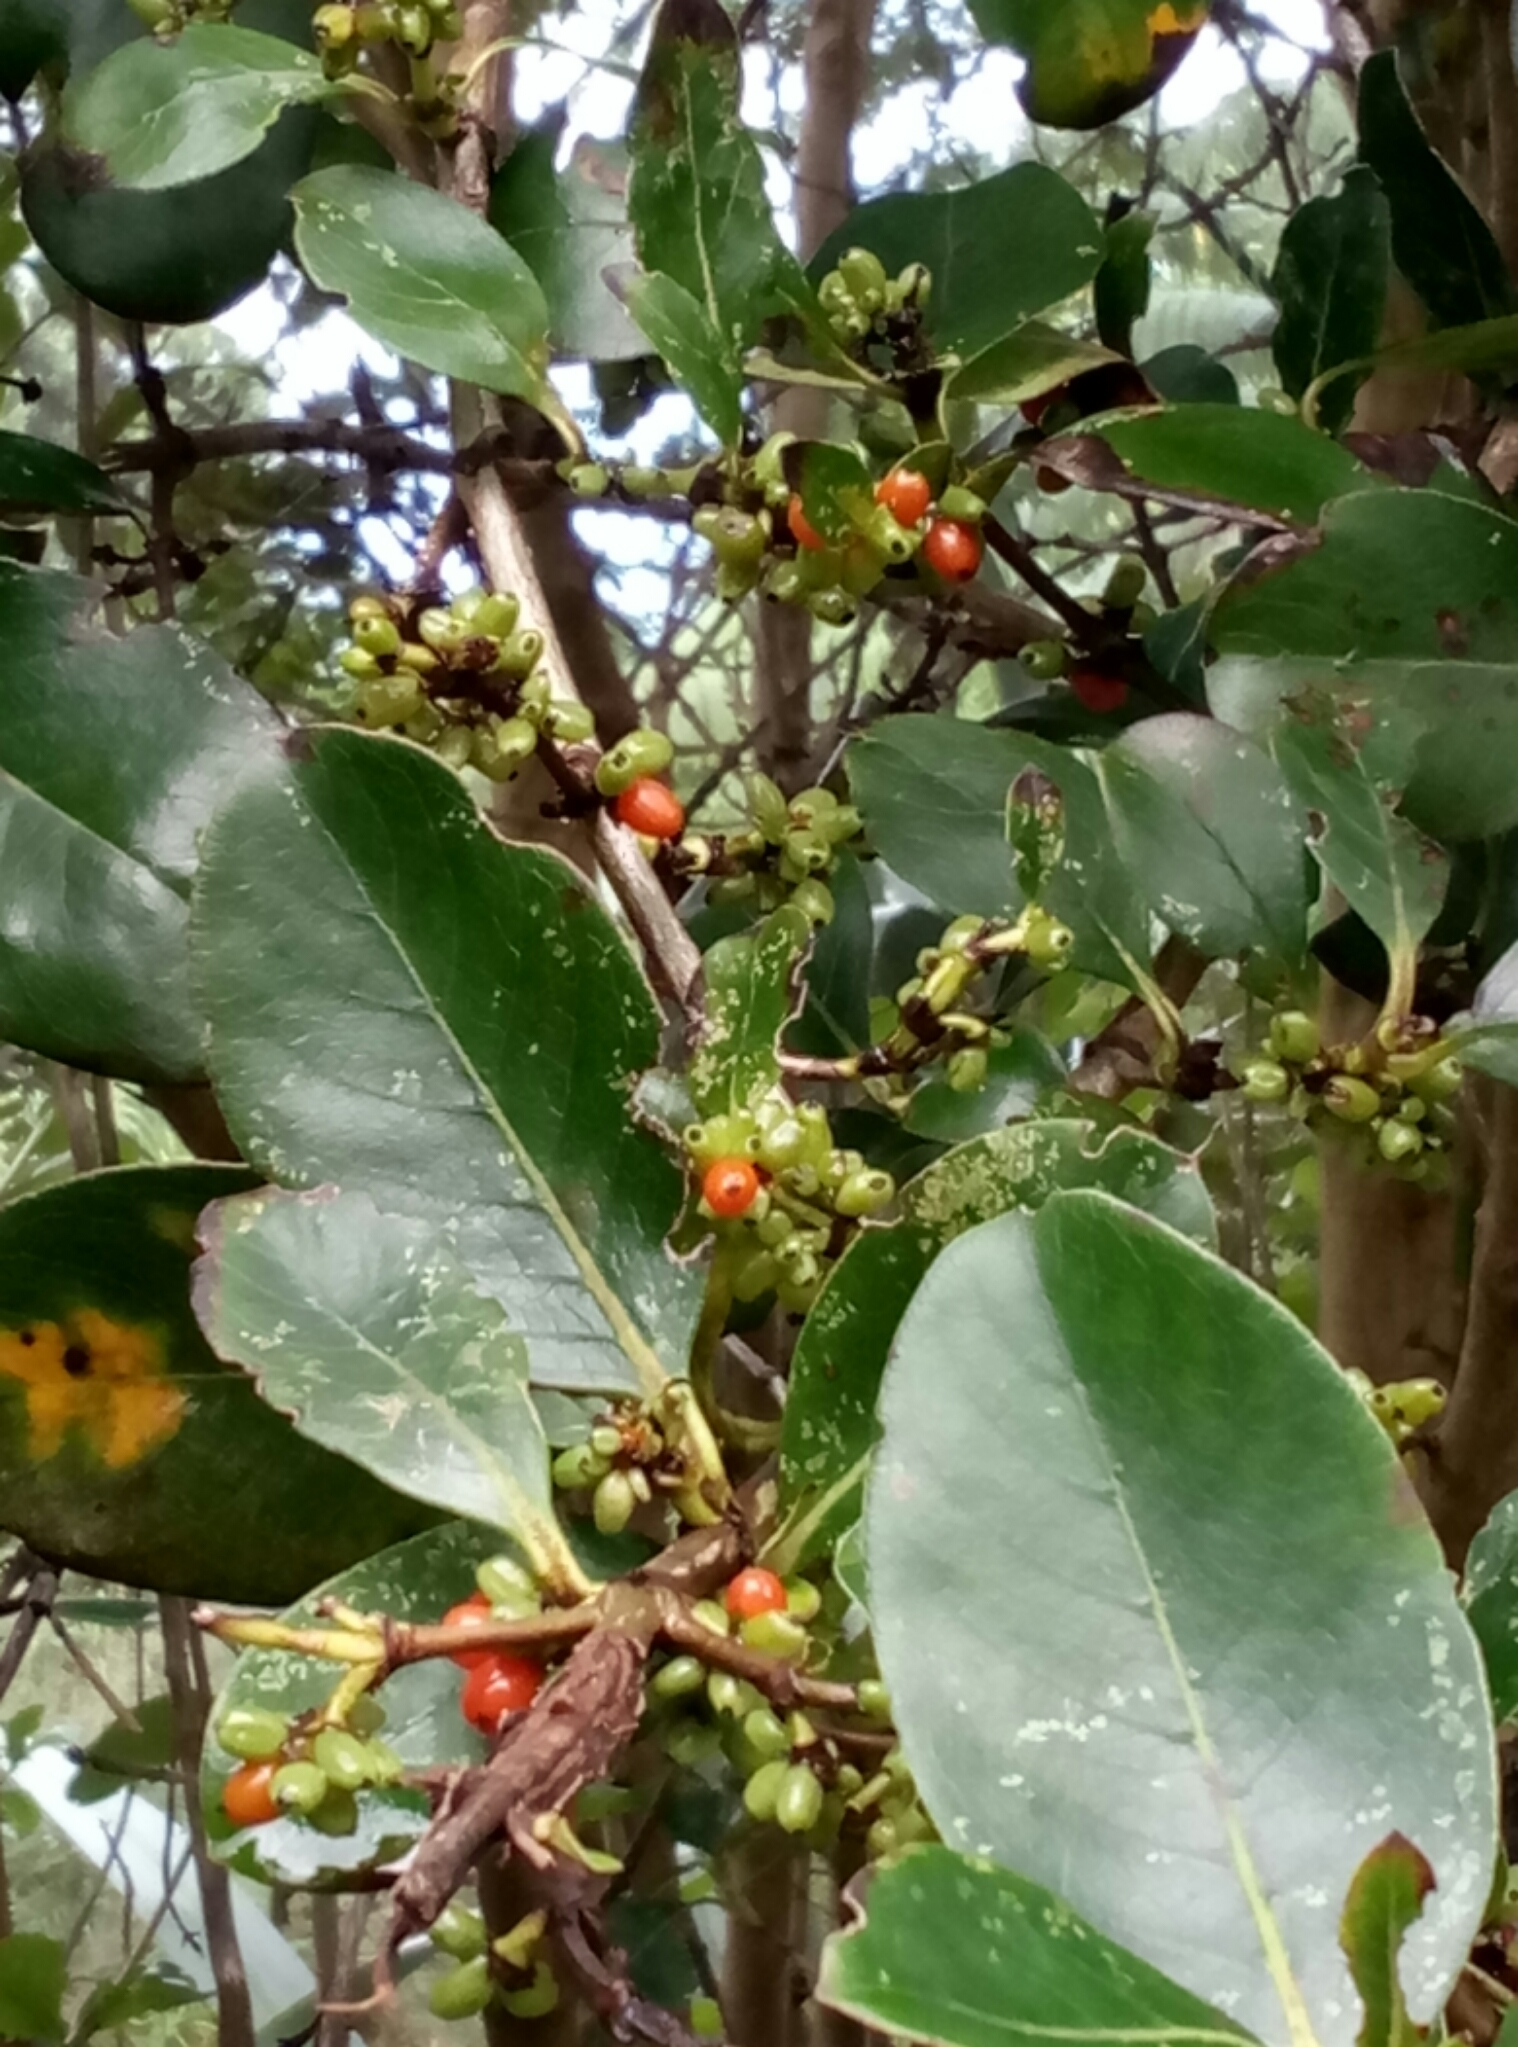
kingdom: Plantae
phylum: Tracheophyta
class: Magnoliopsida
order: Gentianales
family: Rubiaceae
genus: Coprosma
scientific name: Coprosma lucida
